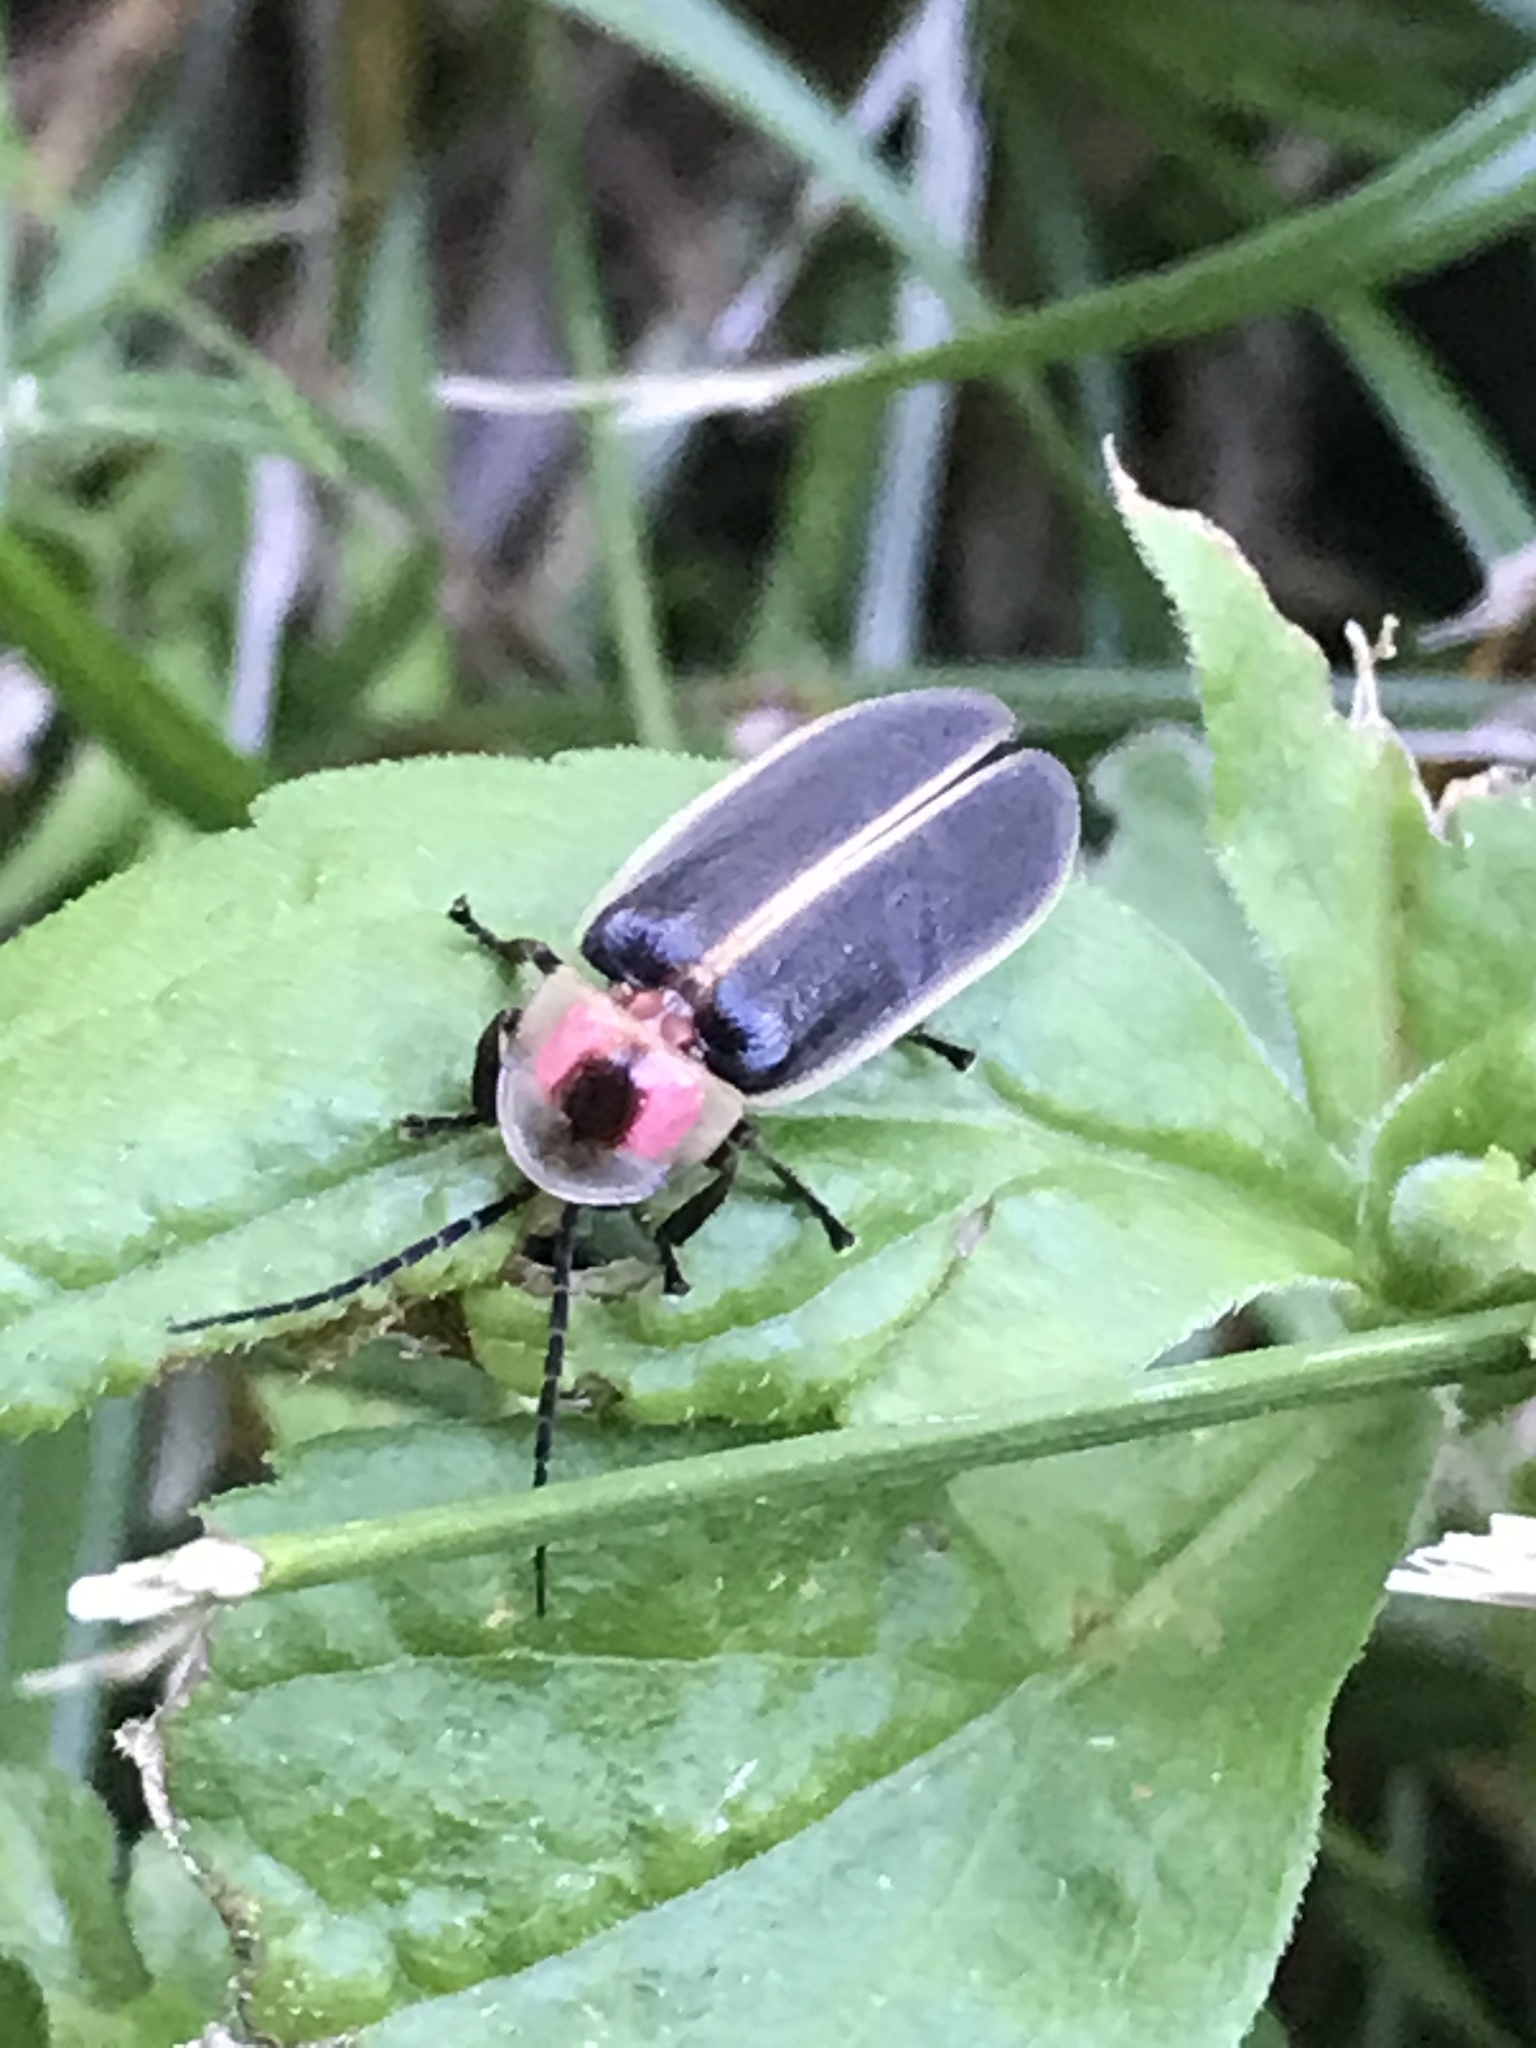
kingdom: Animalia
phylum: Arthropoda
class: Insecta
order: Coleoptera
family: Lampyridae
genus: Photinus
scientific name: Photinus pyralis
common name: Big dipper firefly
